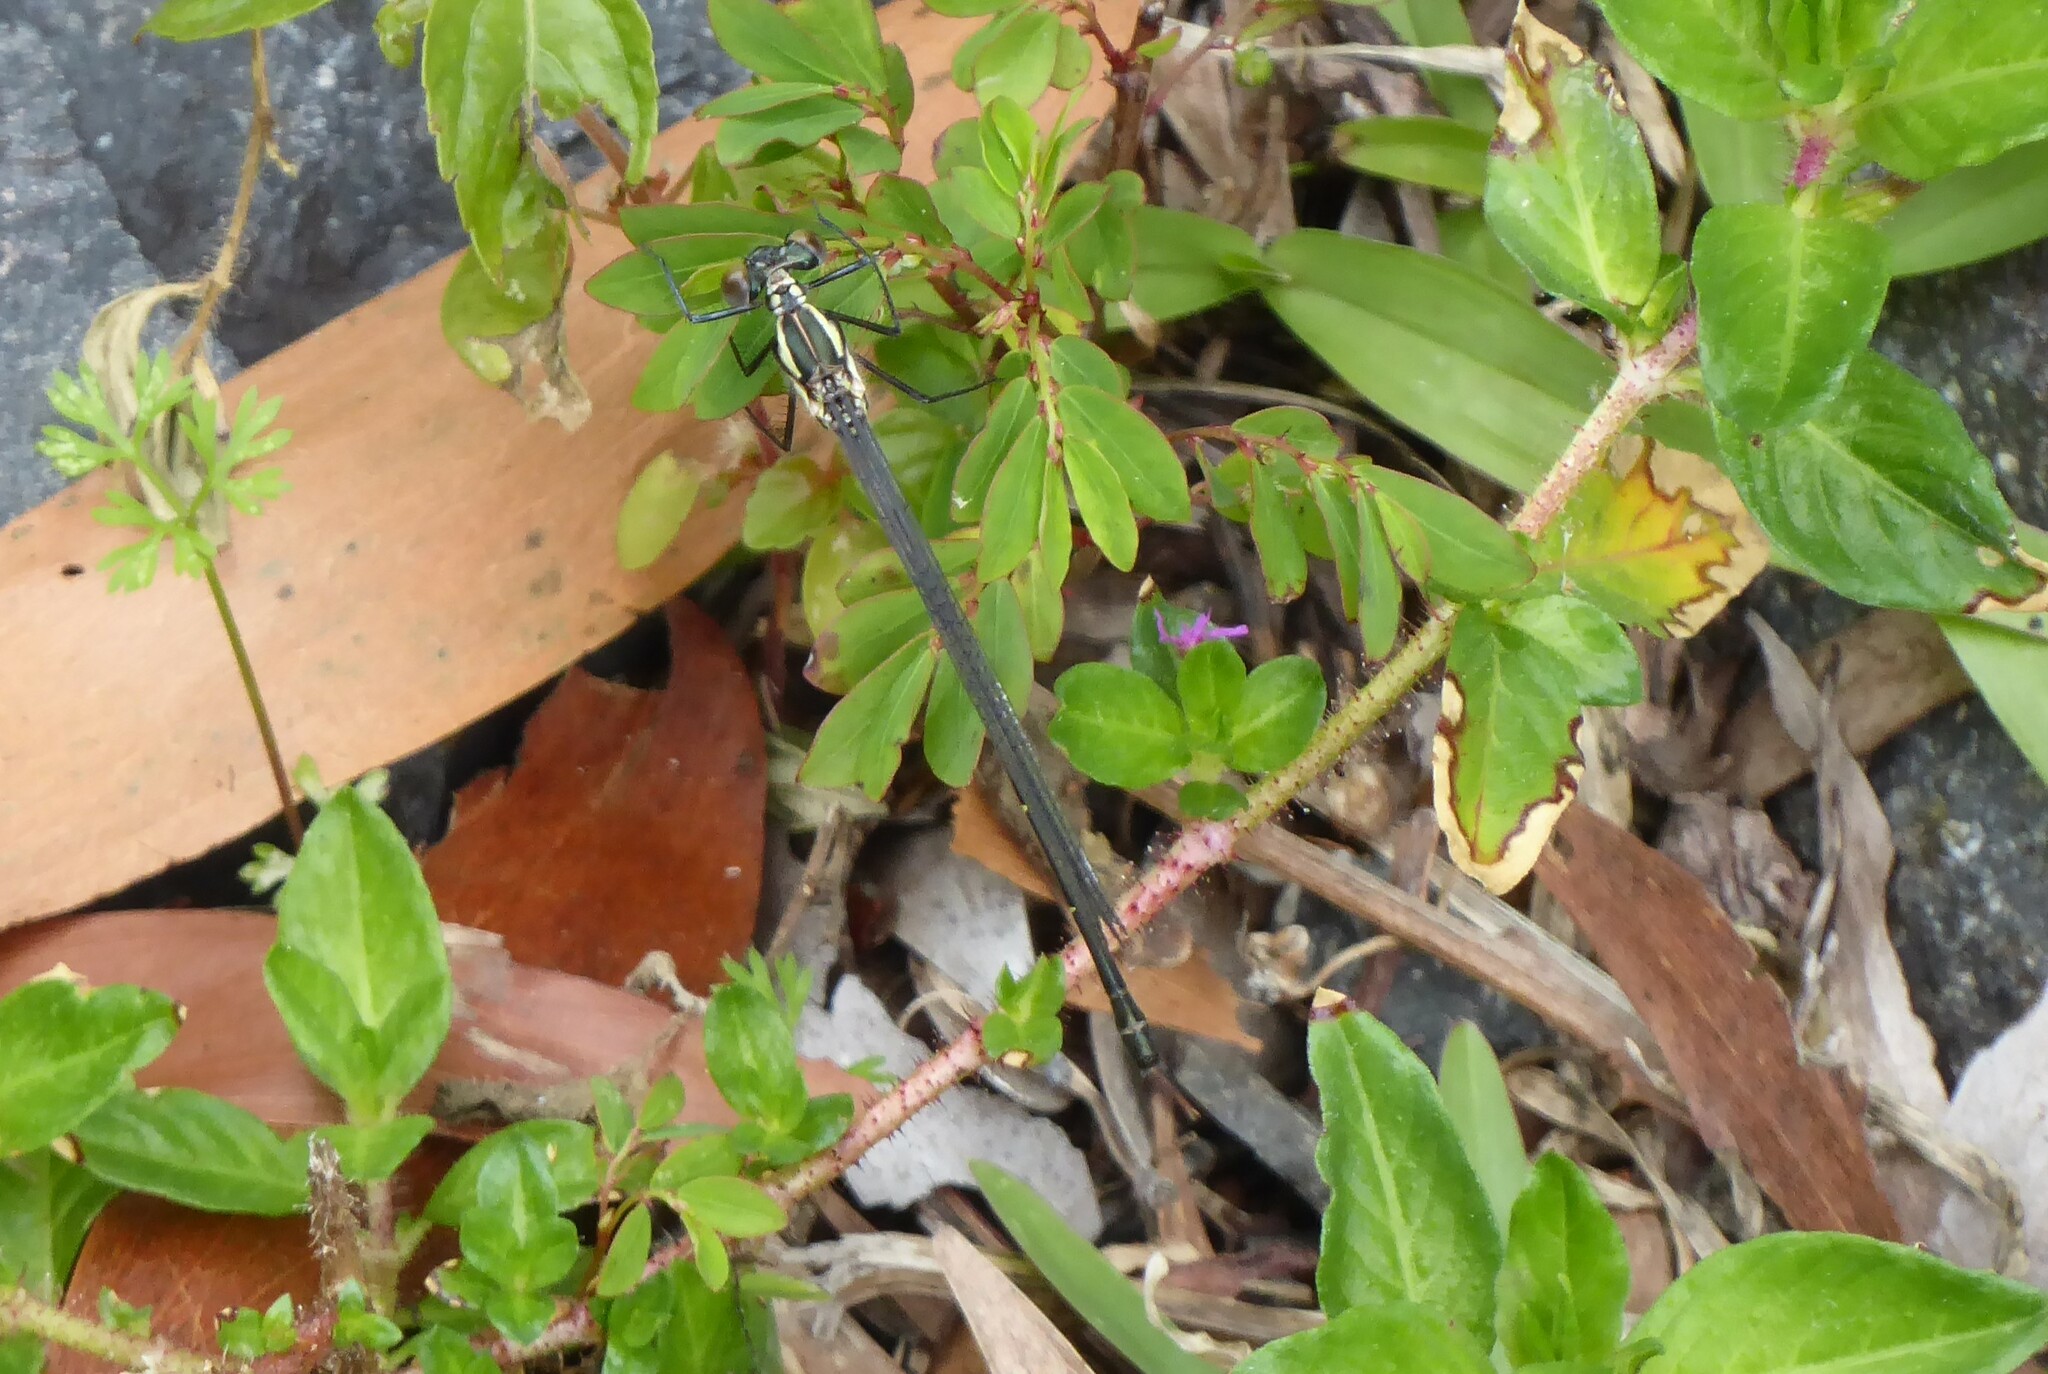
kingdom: Animalia
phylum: Arthropoda
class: Insecta
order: Odonata
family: Argiolestidae
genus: Austroargiolestes
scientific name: Austroargiolestes icteromelas
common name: Common flatwing
